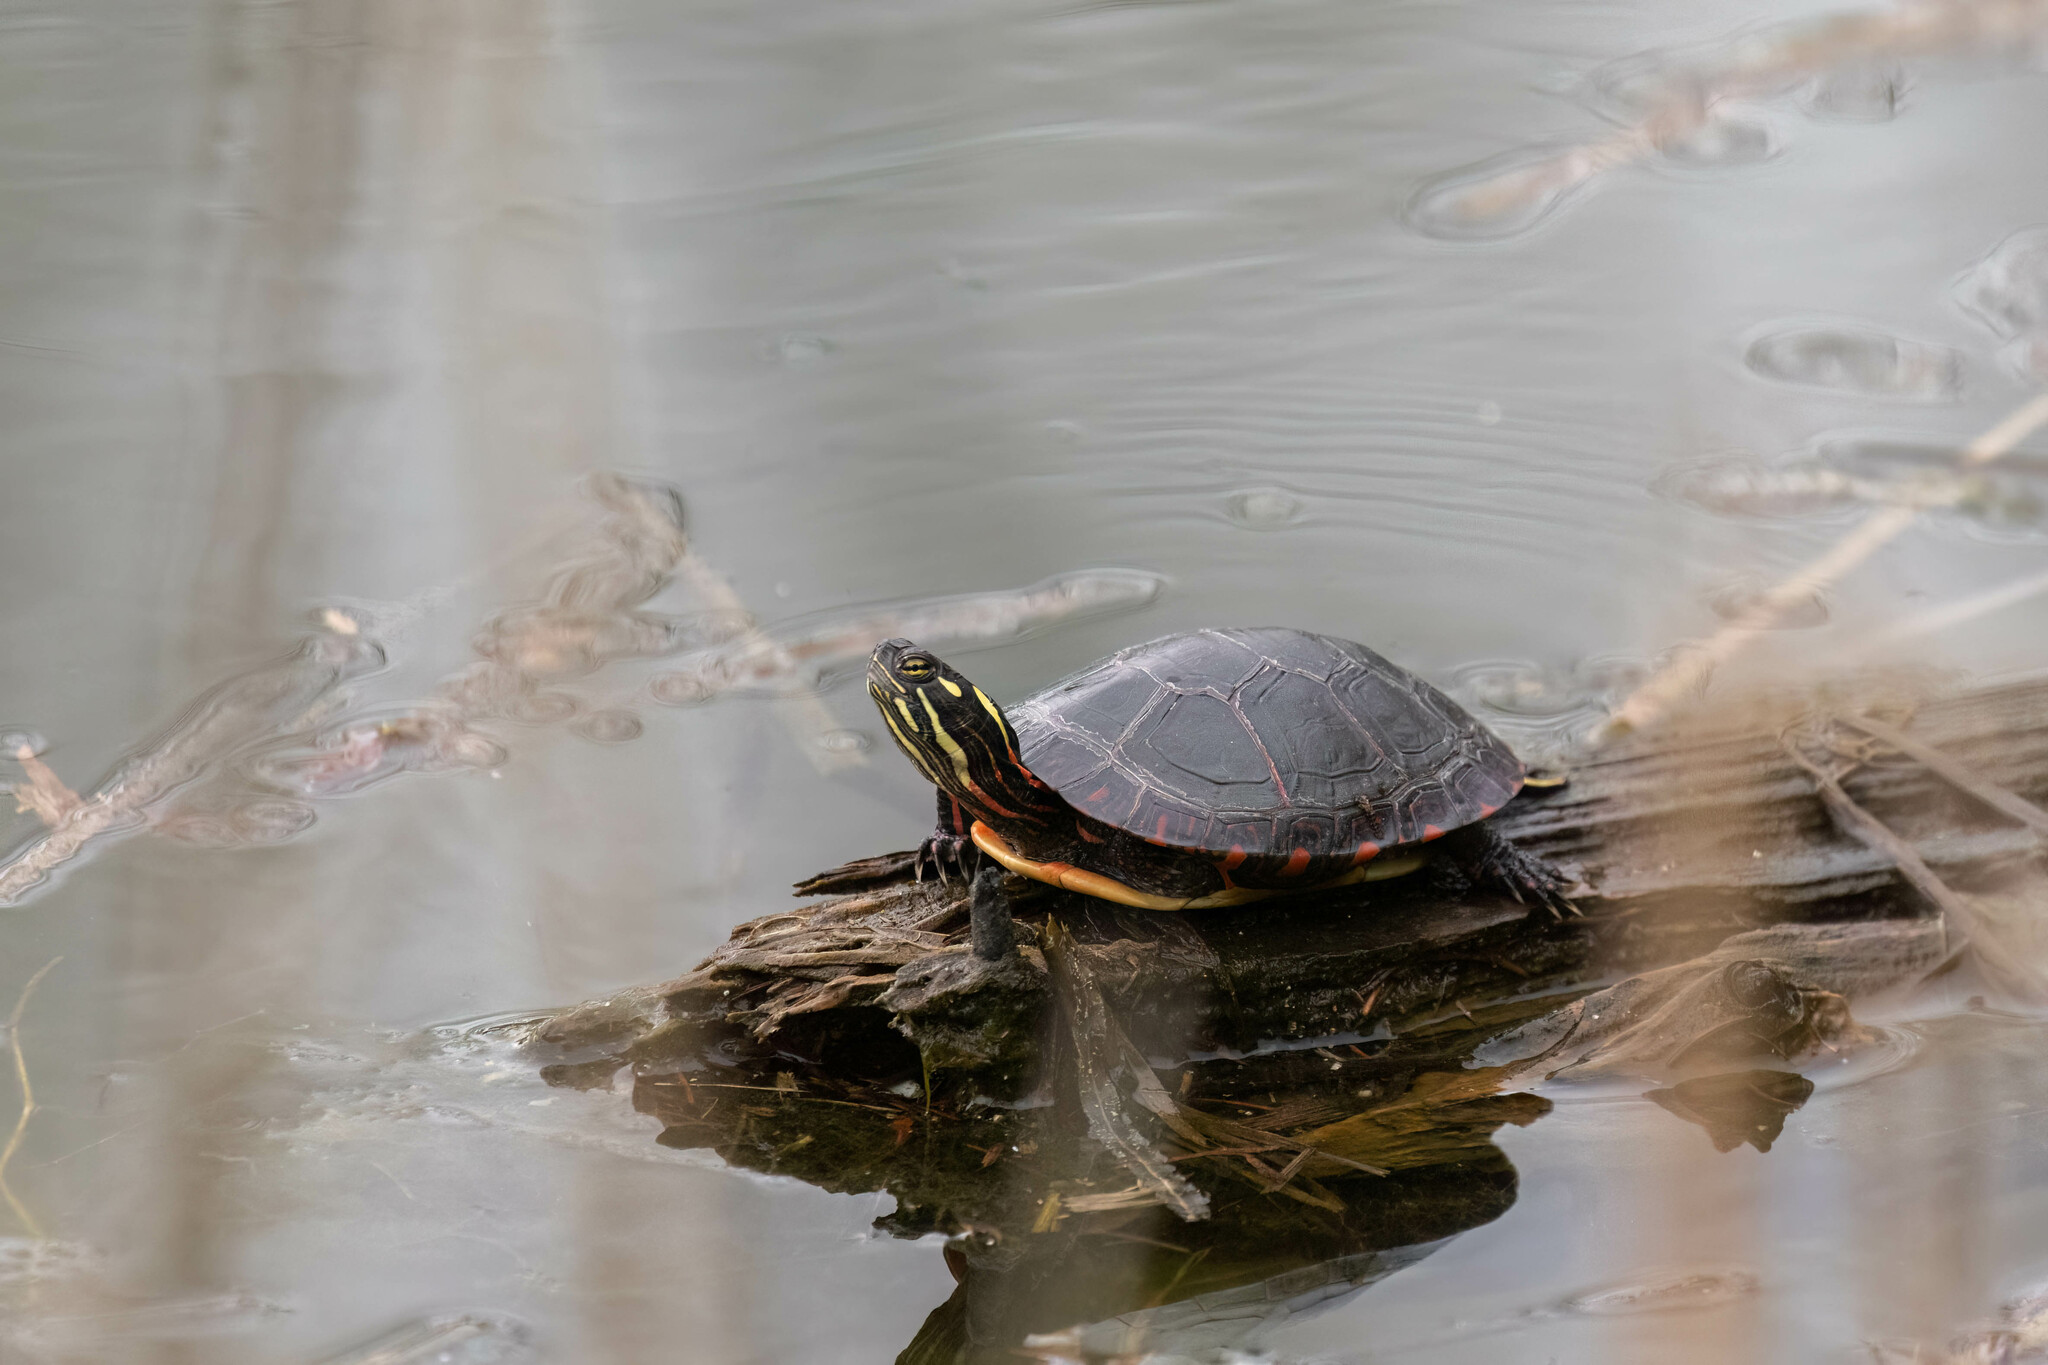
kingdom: Animalia
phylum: Chordata
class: Testudines
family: Emydidae
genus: Chrysemys
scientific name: Chrysemys picta
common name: Painted turtle
